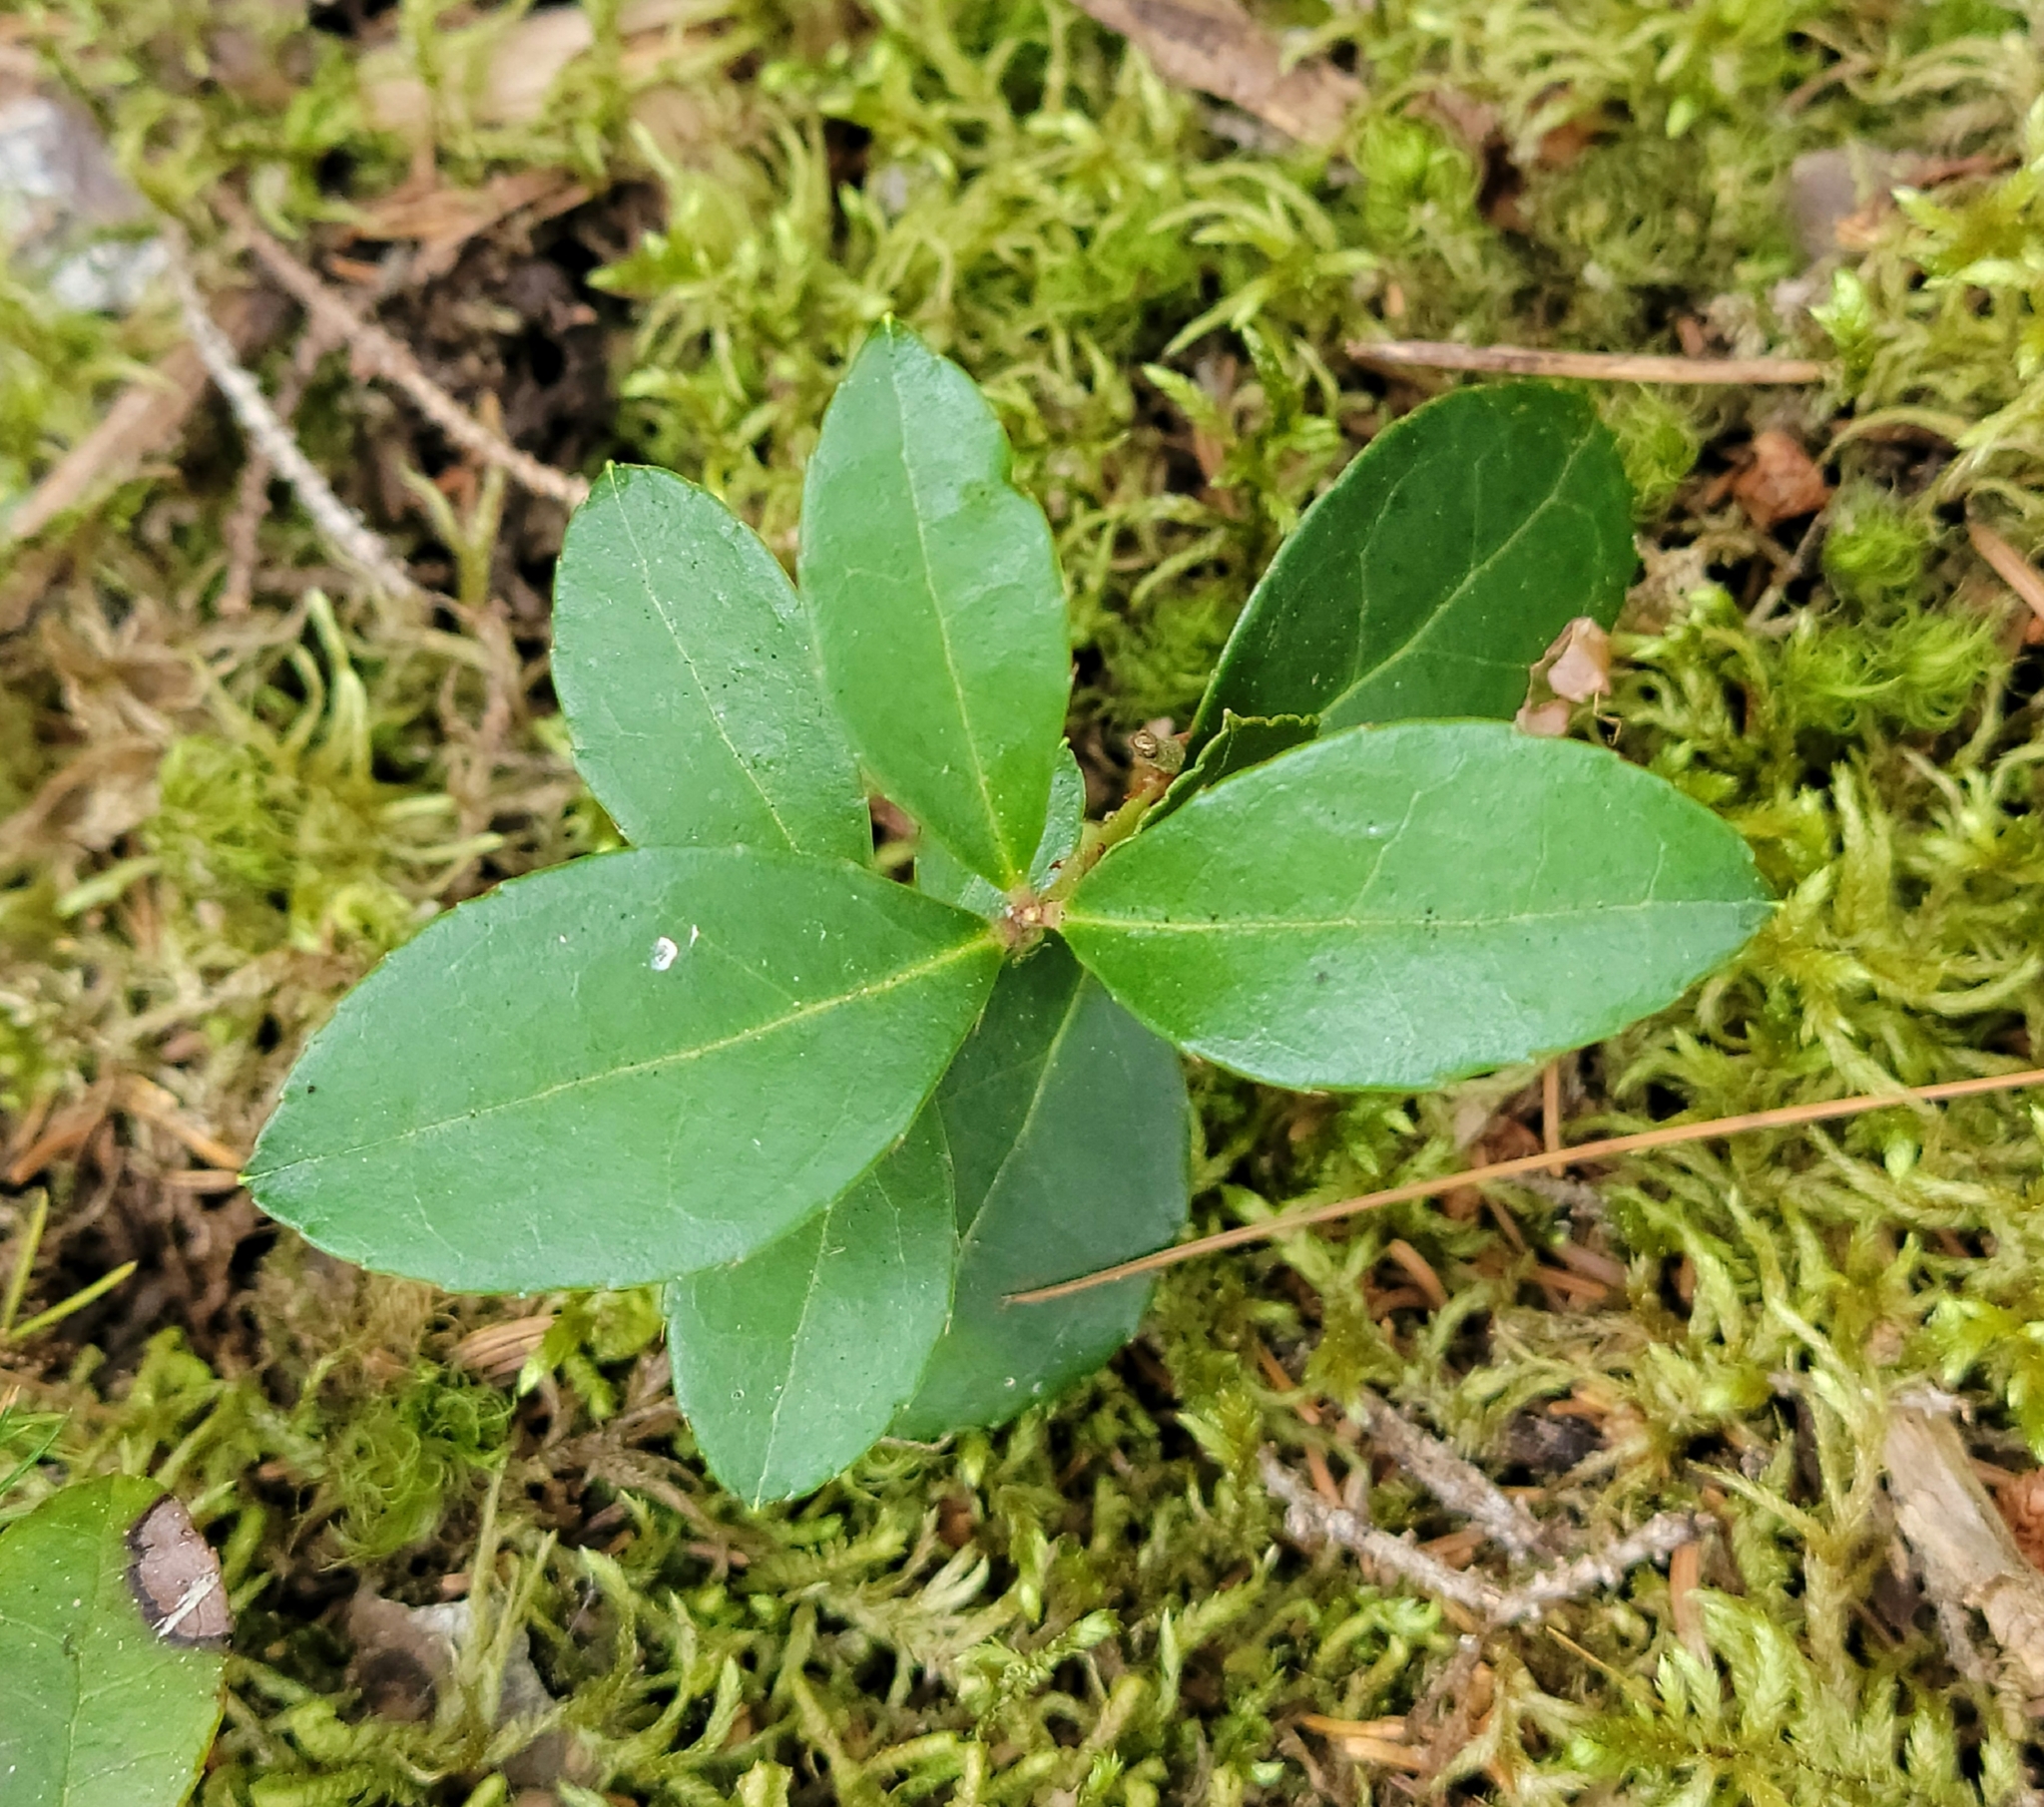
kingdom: Plantae
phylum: Tracheophyta
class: Magnoliopsida
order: Ericales
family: Ericaceae
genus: Gaultheria
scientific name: Gaultheria procumbens
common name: Checkerberry
